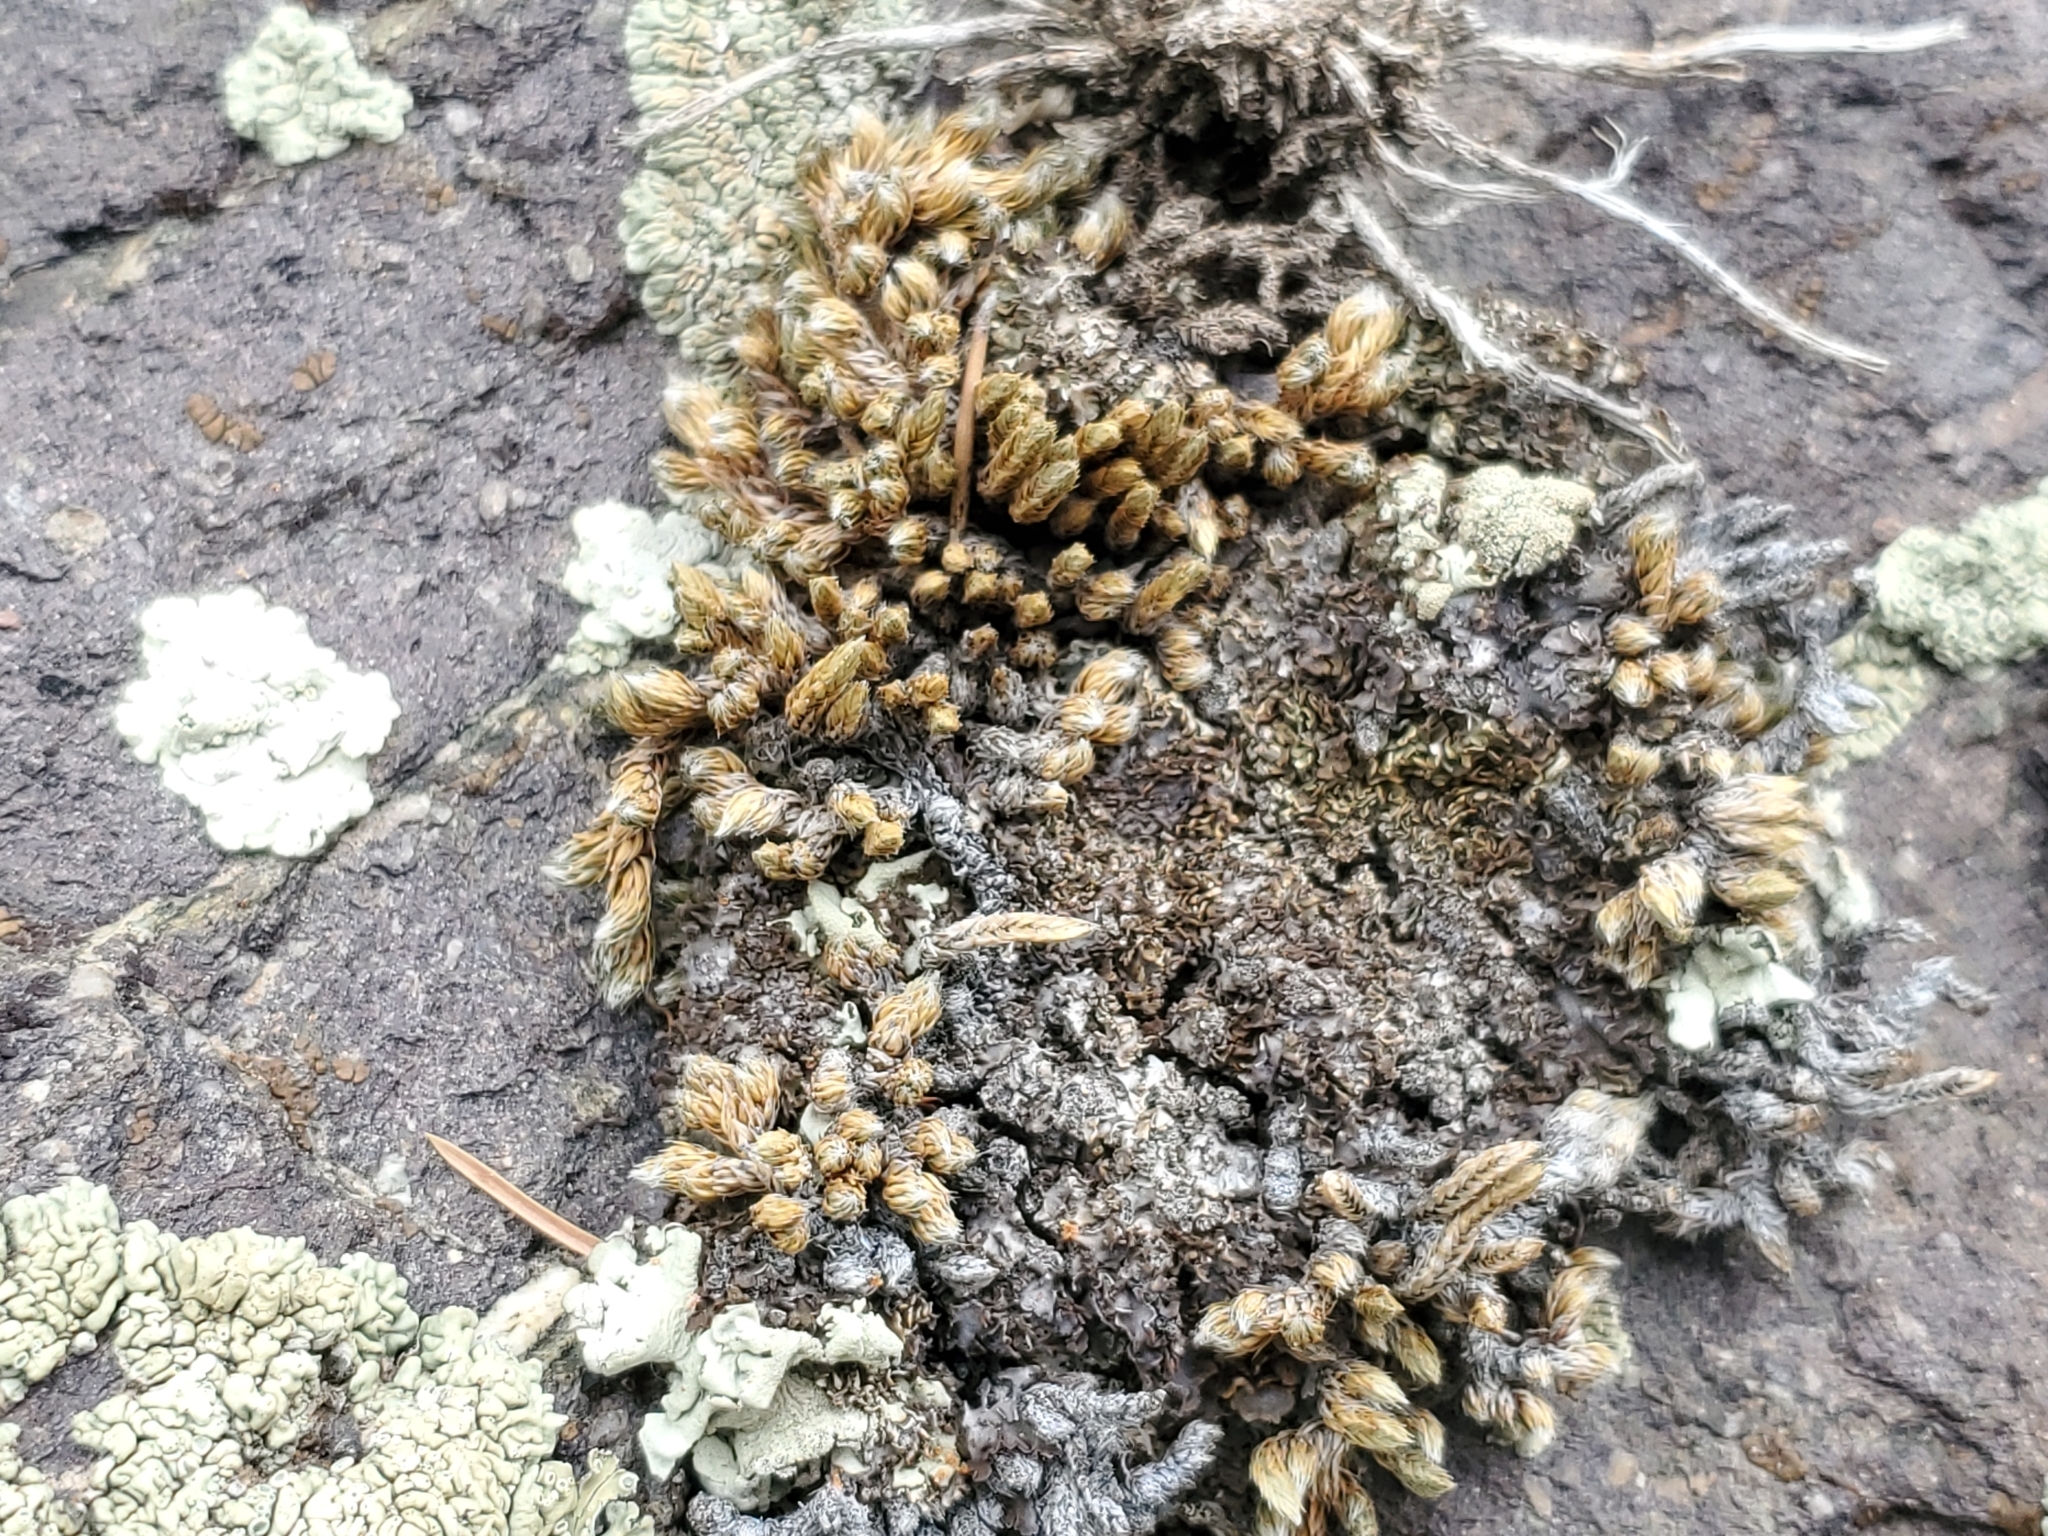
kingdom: Plantae
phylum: Tracheophyta
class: Lycopodiopsida
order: Selaginellales
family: Selaginellaceae
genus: Selaginella
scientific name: Selaginella densa
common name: Mountain spike-moss
